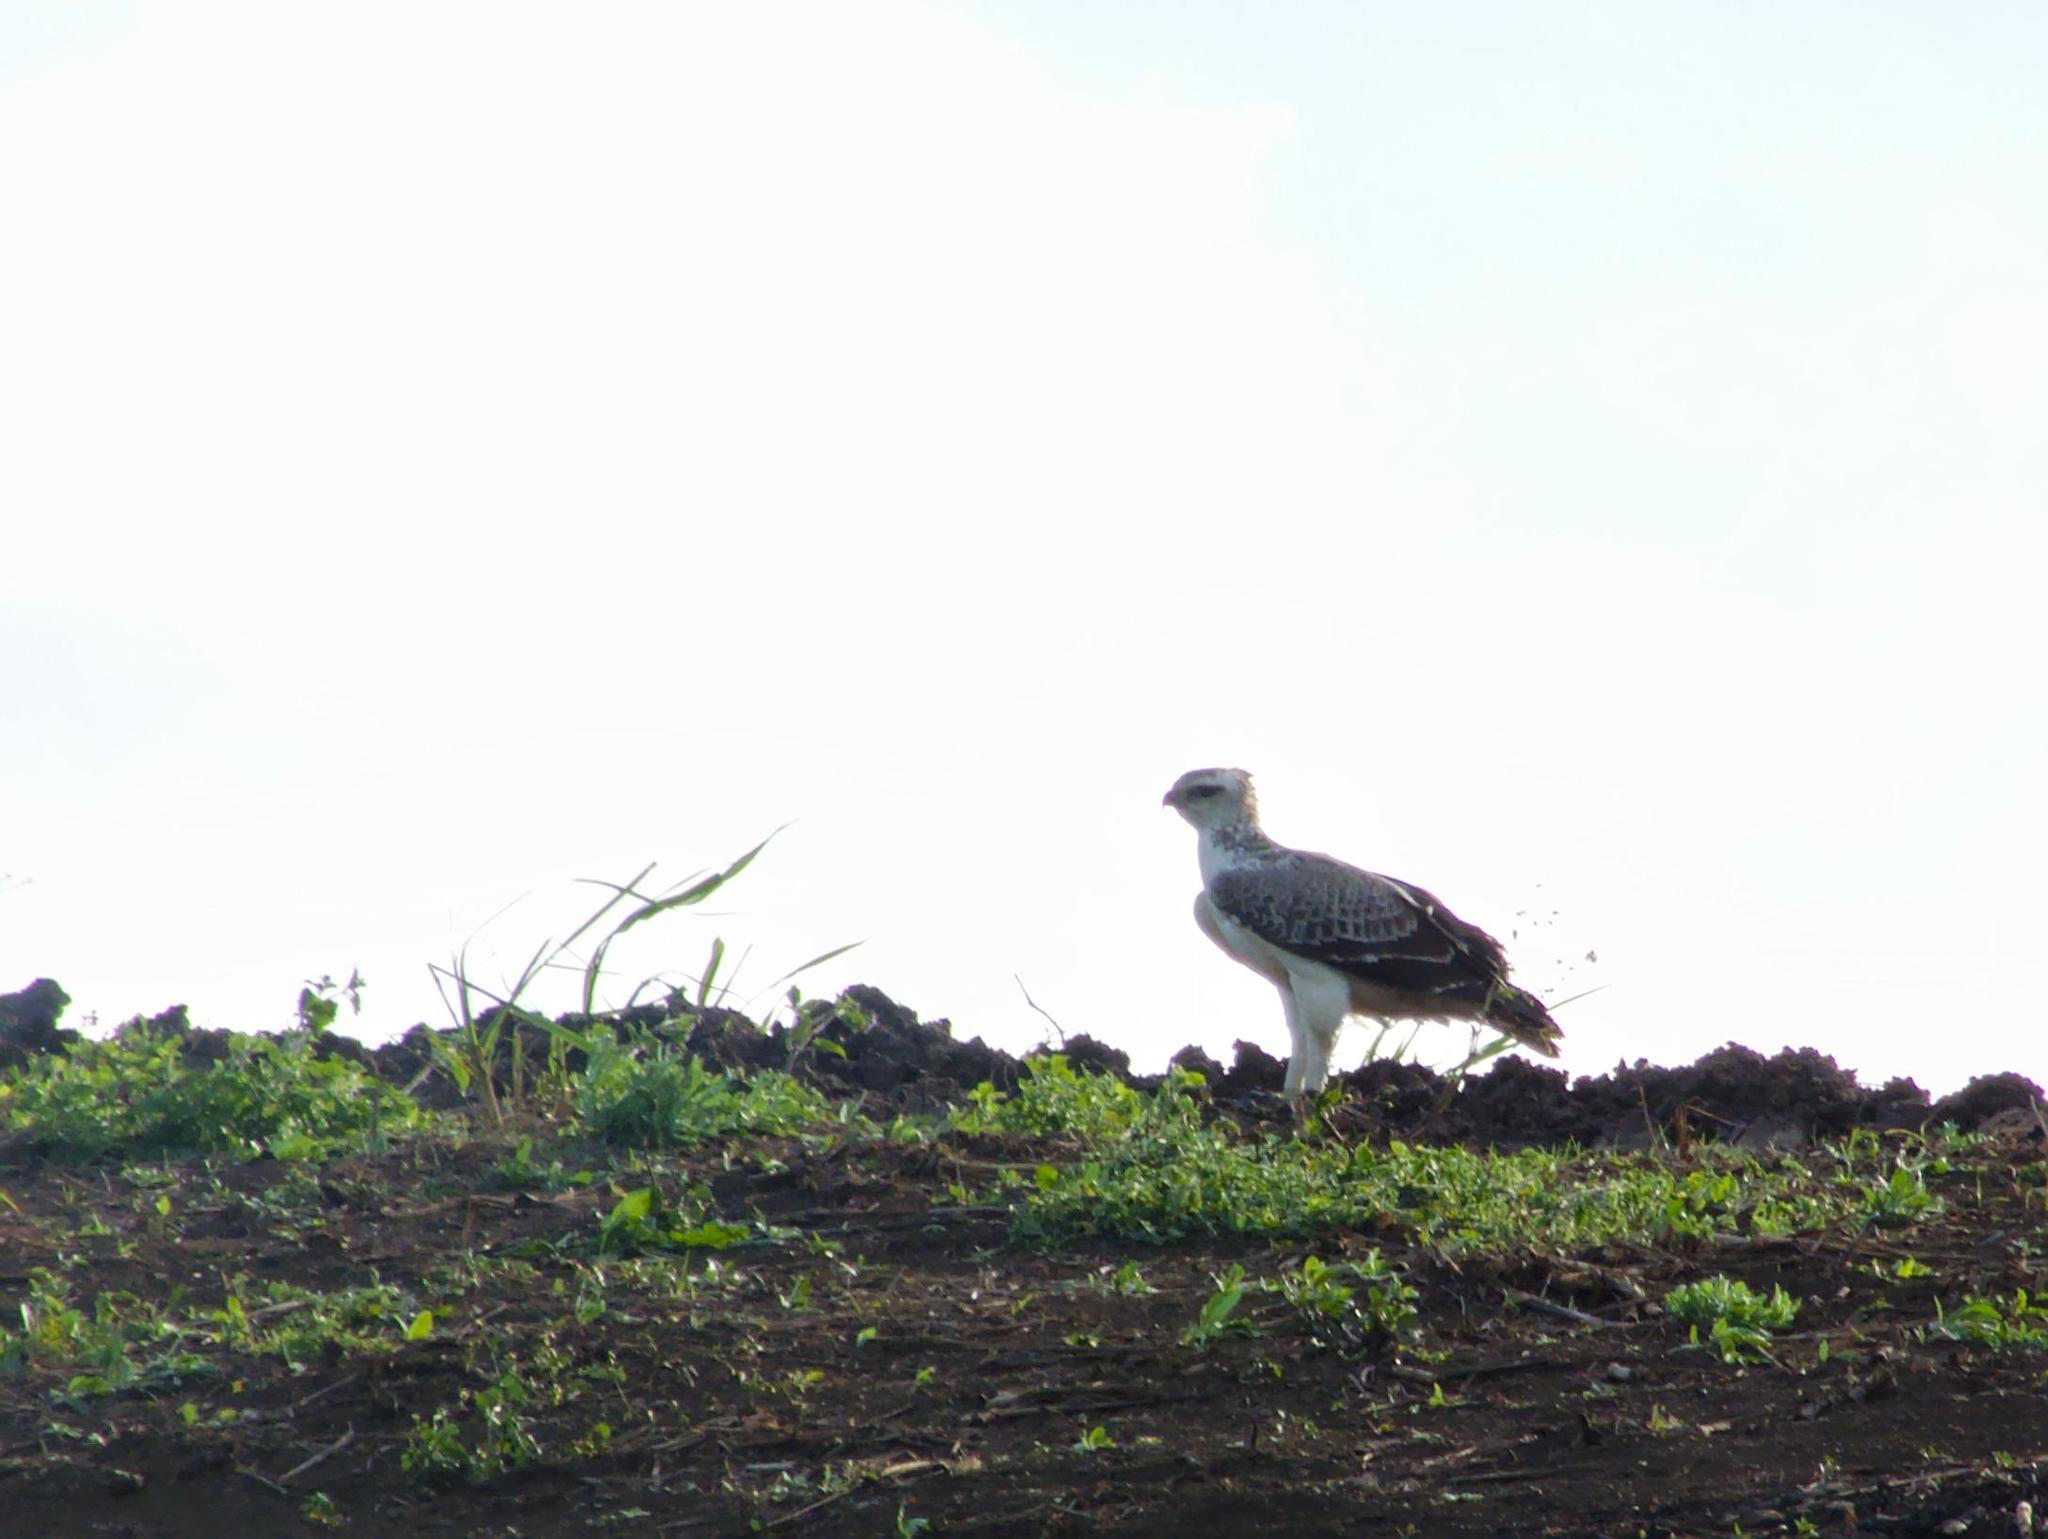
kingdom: Animalia
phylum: Chordata
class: Aves
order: Accipitriformes
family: Accipitridae
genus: Polemaetus
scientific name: Polemaetus bellicosus
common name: Martial eagle
